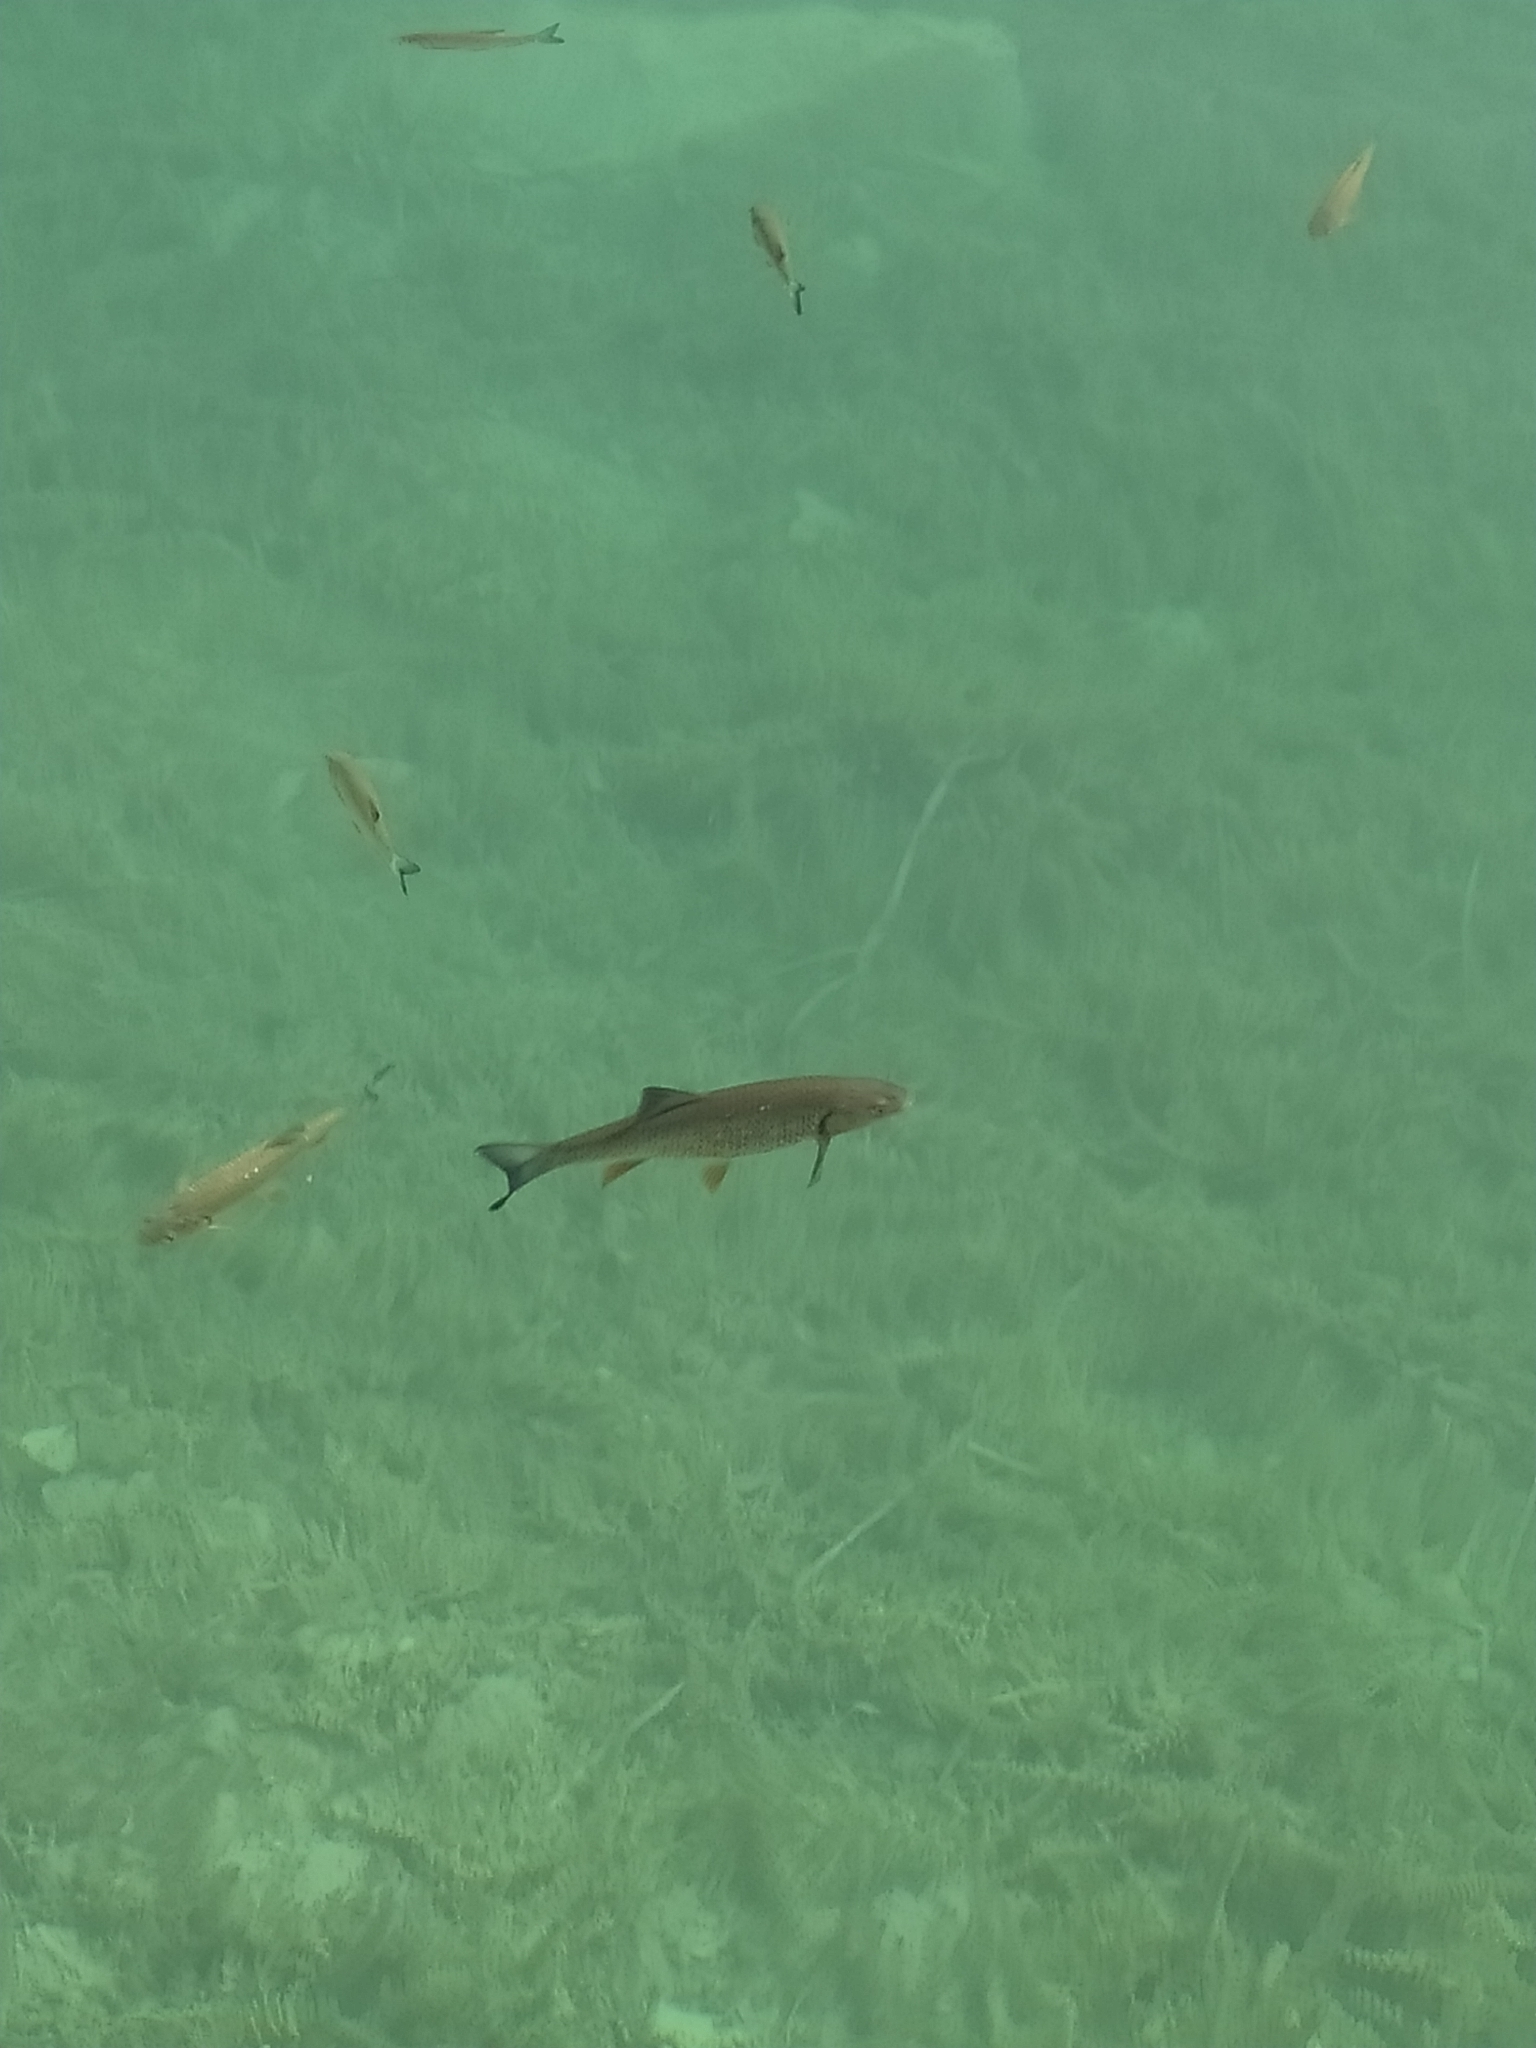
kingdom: Animalia
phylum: Chordata
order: Cypriniformes
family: Cyprinidae
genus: Squalius
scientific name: Squalius cephalus
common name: Chub
